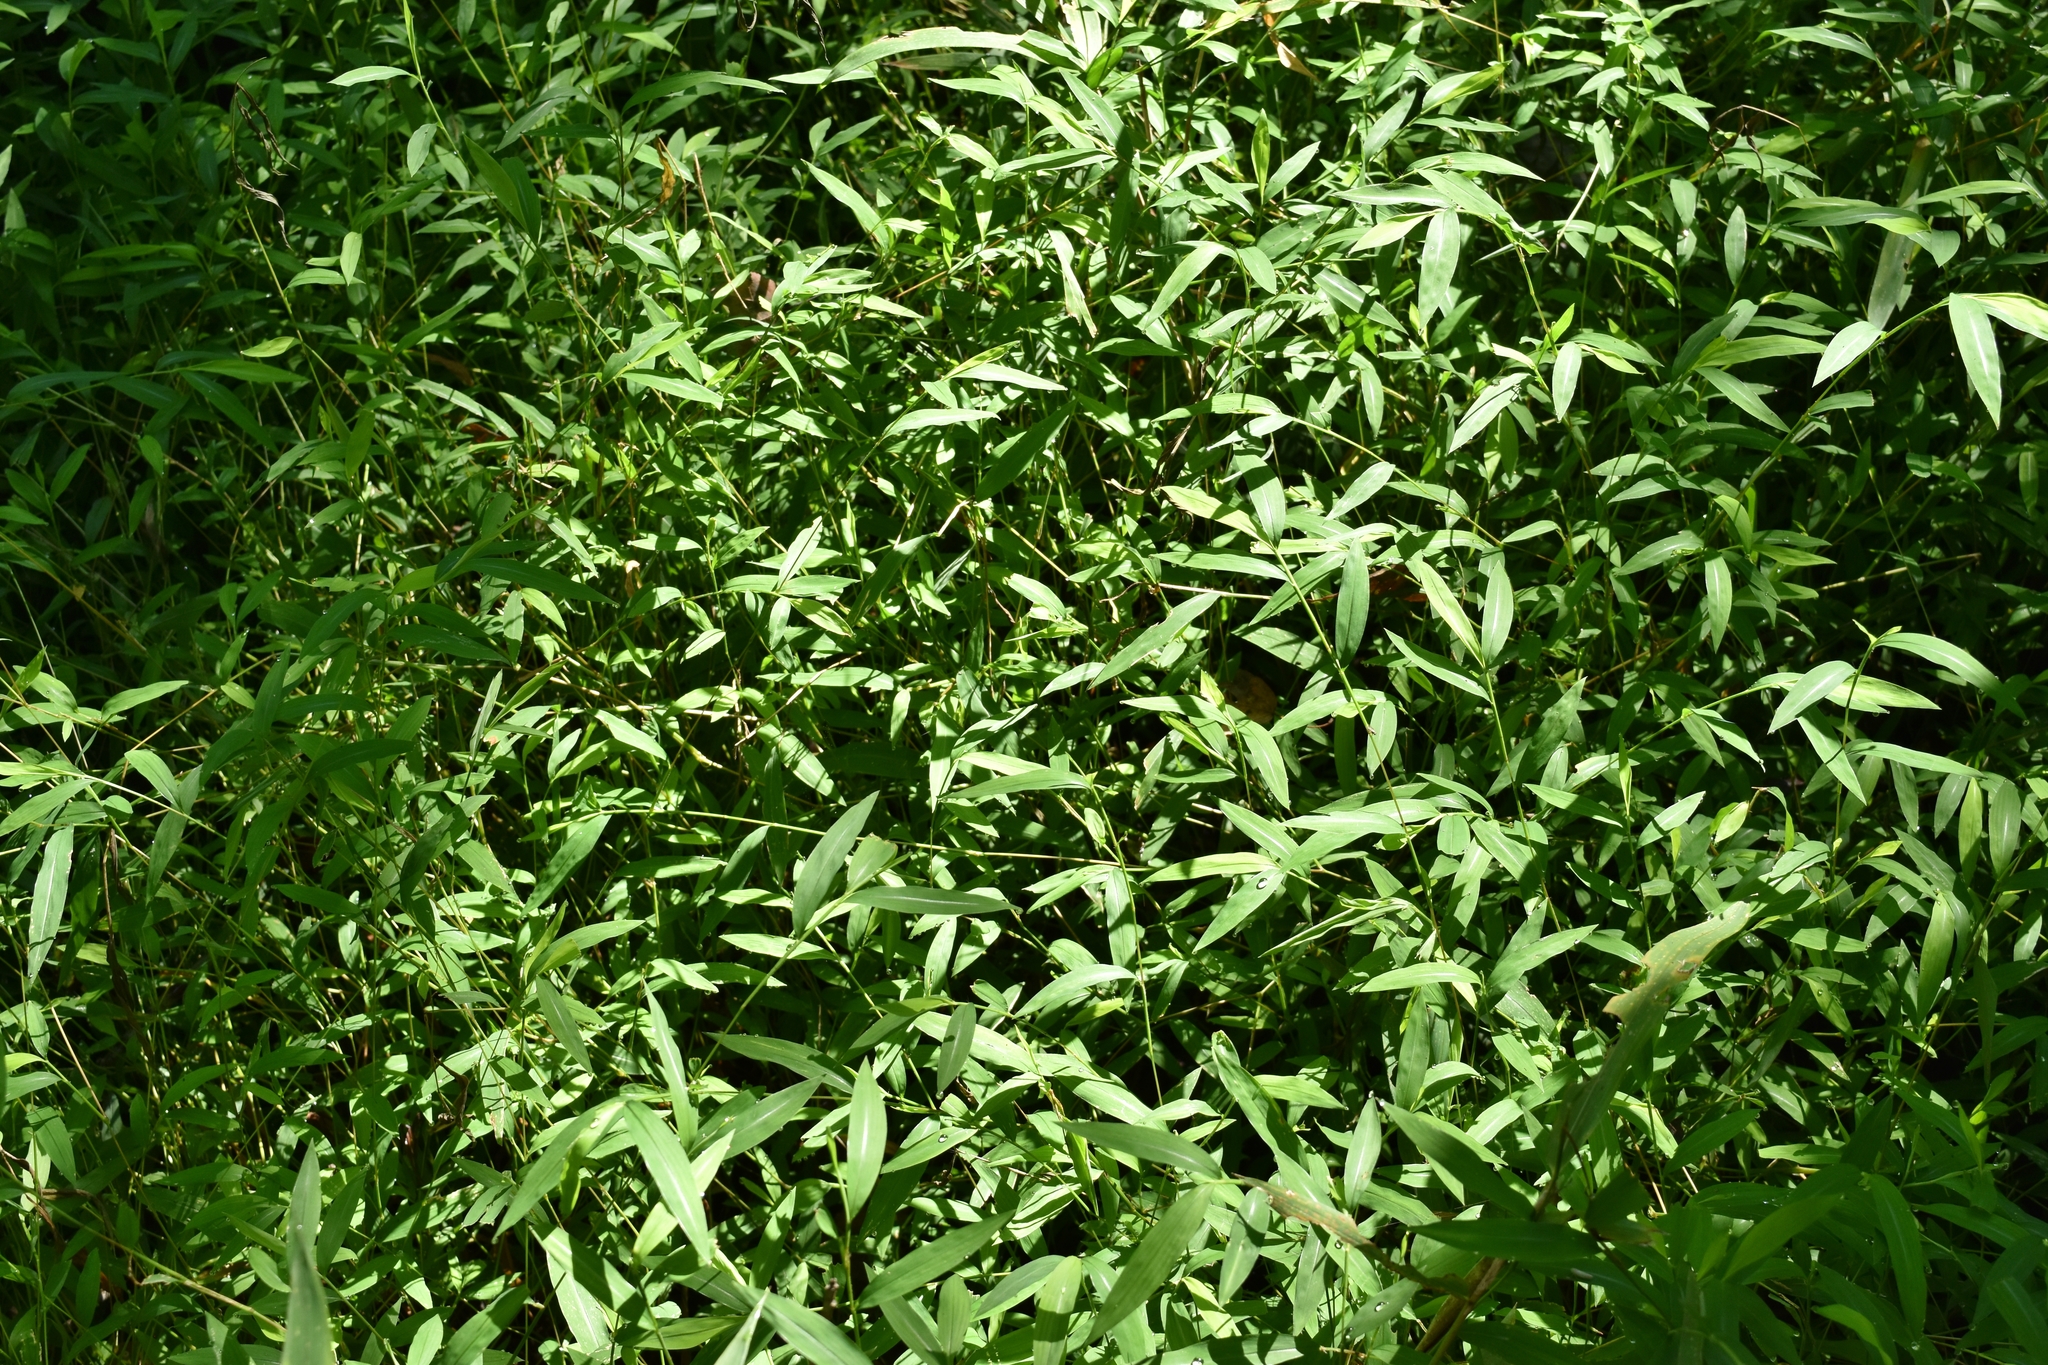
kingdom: Plantae
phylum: Tracheophyta
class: Liliopsida
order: Poales
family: Poaceae
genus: Microstegium
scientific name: Microstegium vimineum
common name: Japanese stiltgrass
